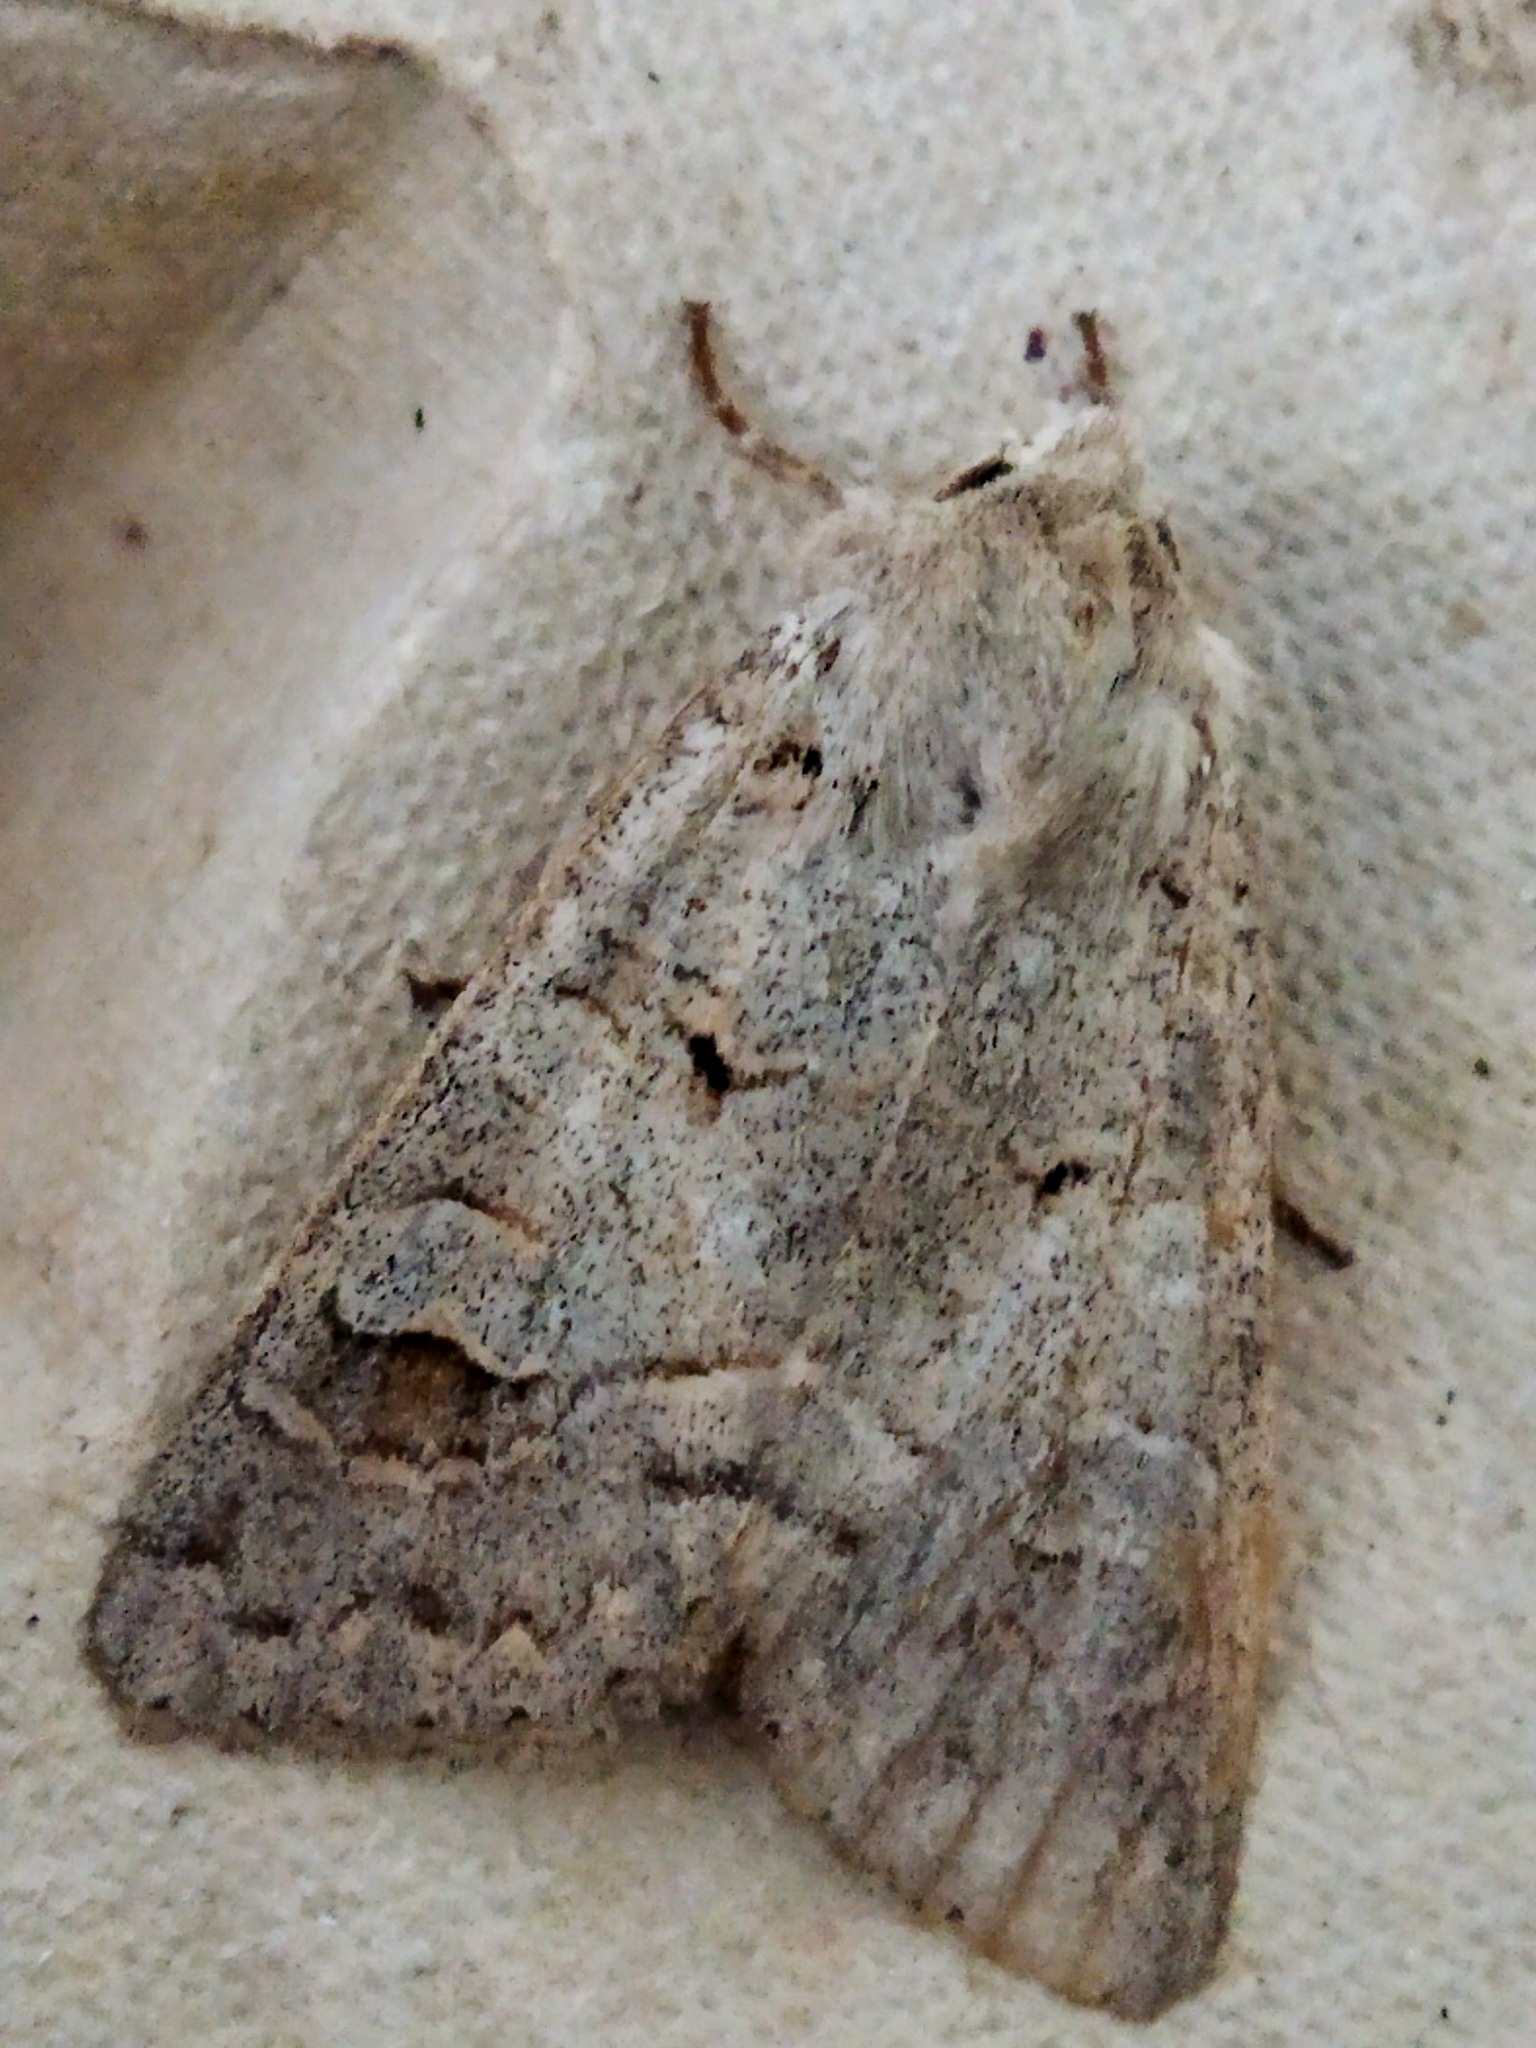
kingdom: Animalia
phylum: Arthropoda
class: Insecta
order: Lepidoptera
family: Noctuidae
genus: Ammoconia
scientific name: Ammoconia caecimacula
